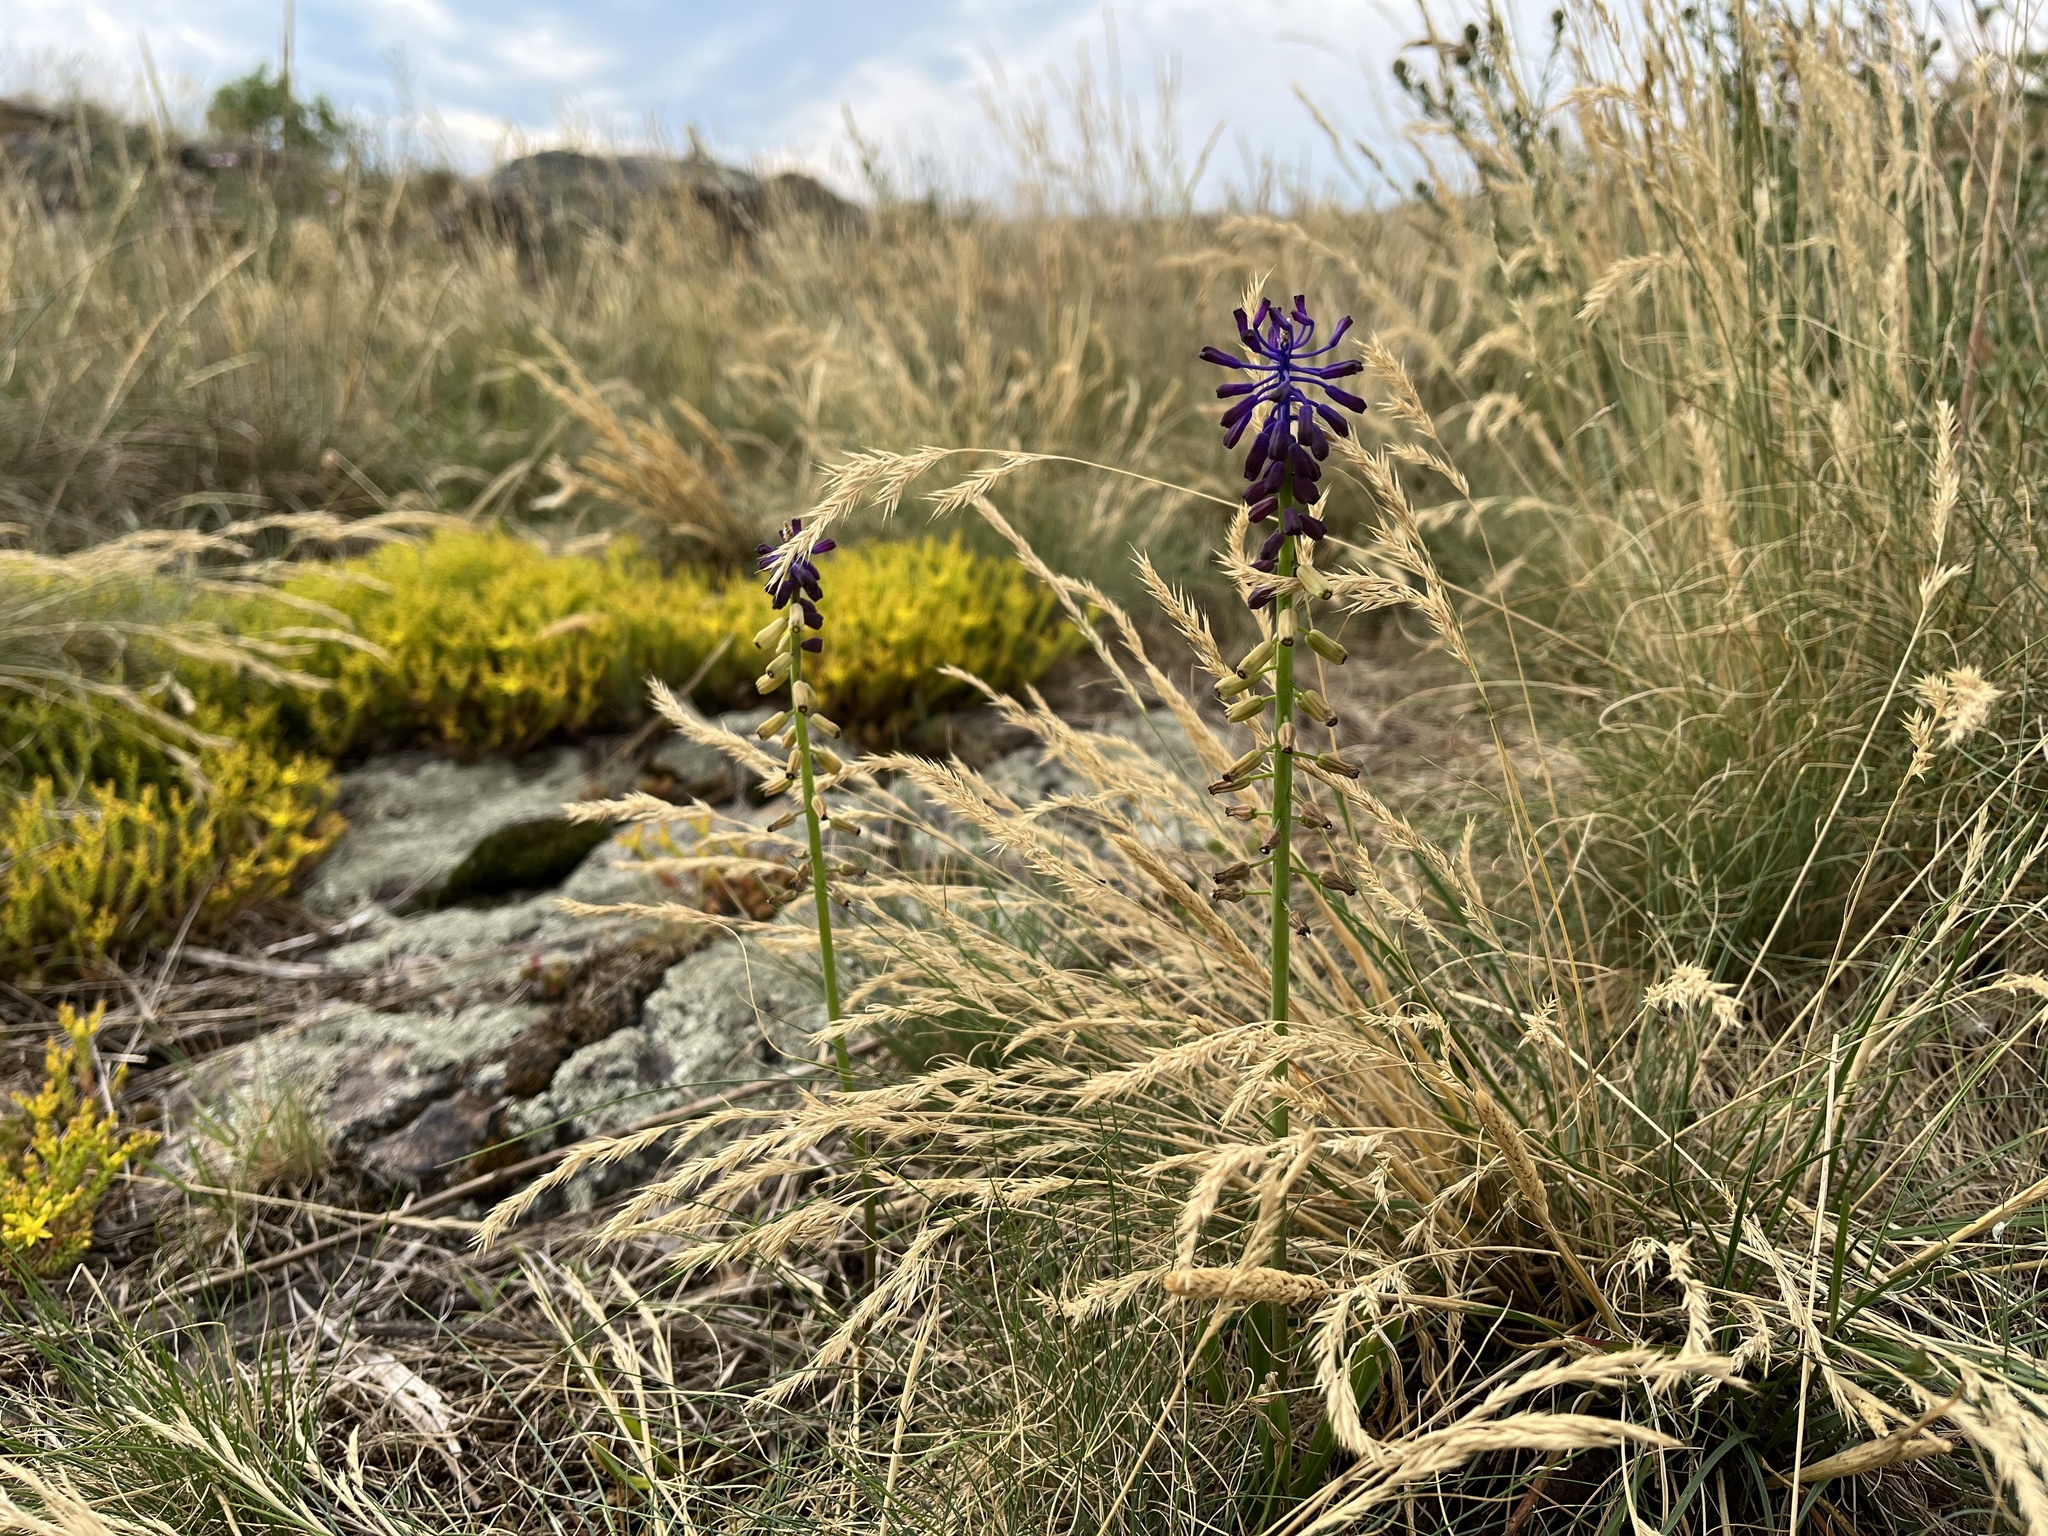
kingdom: Plantae
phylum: Tracheophyta
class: Liliopsida
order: Asparagales
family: Asparagaceae
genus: Muscari
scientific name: Muscari tenuiflorum
